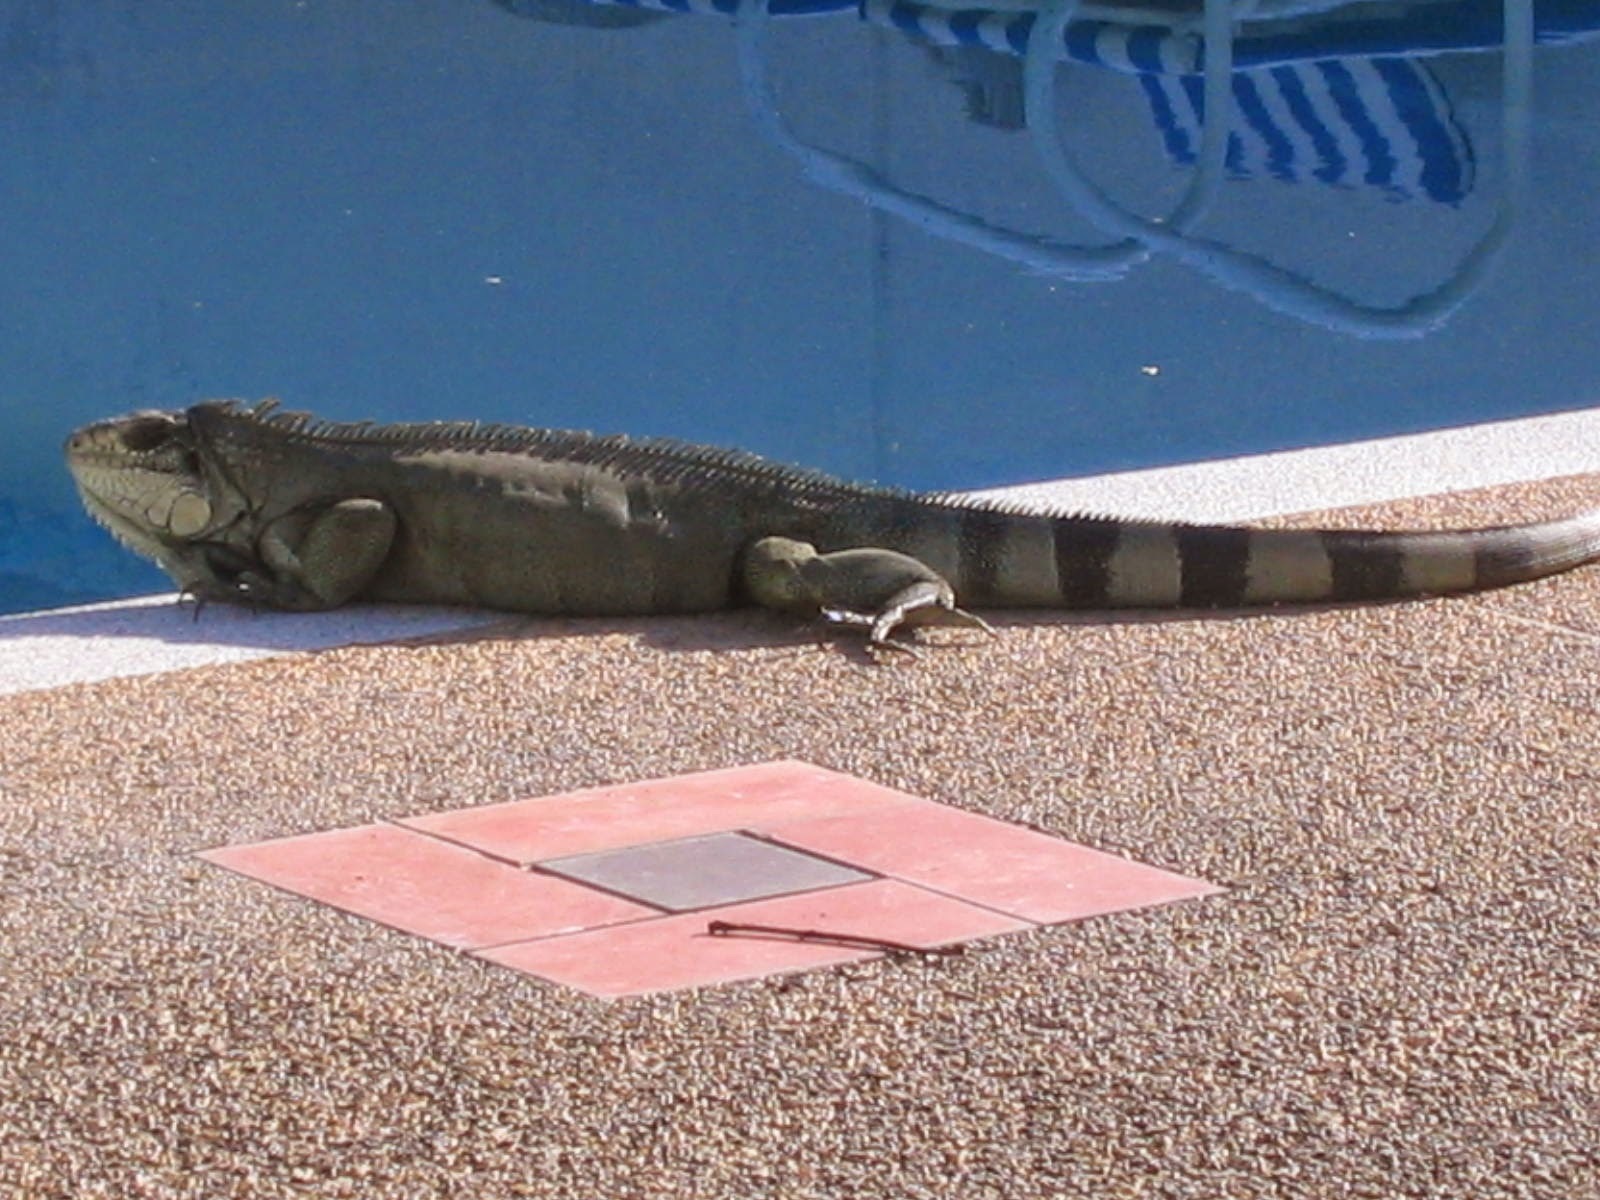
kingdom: Animalia
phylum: Chordata
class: Squamata
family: Iguanidae
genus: Iguana
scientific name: Iguana iguana
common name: Green iguana
